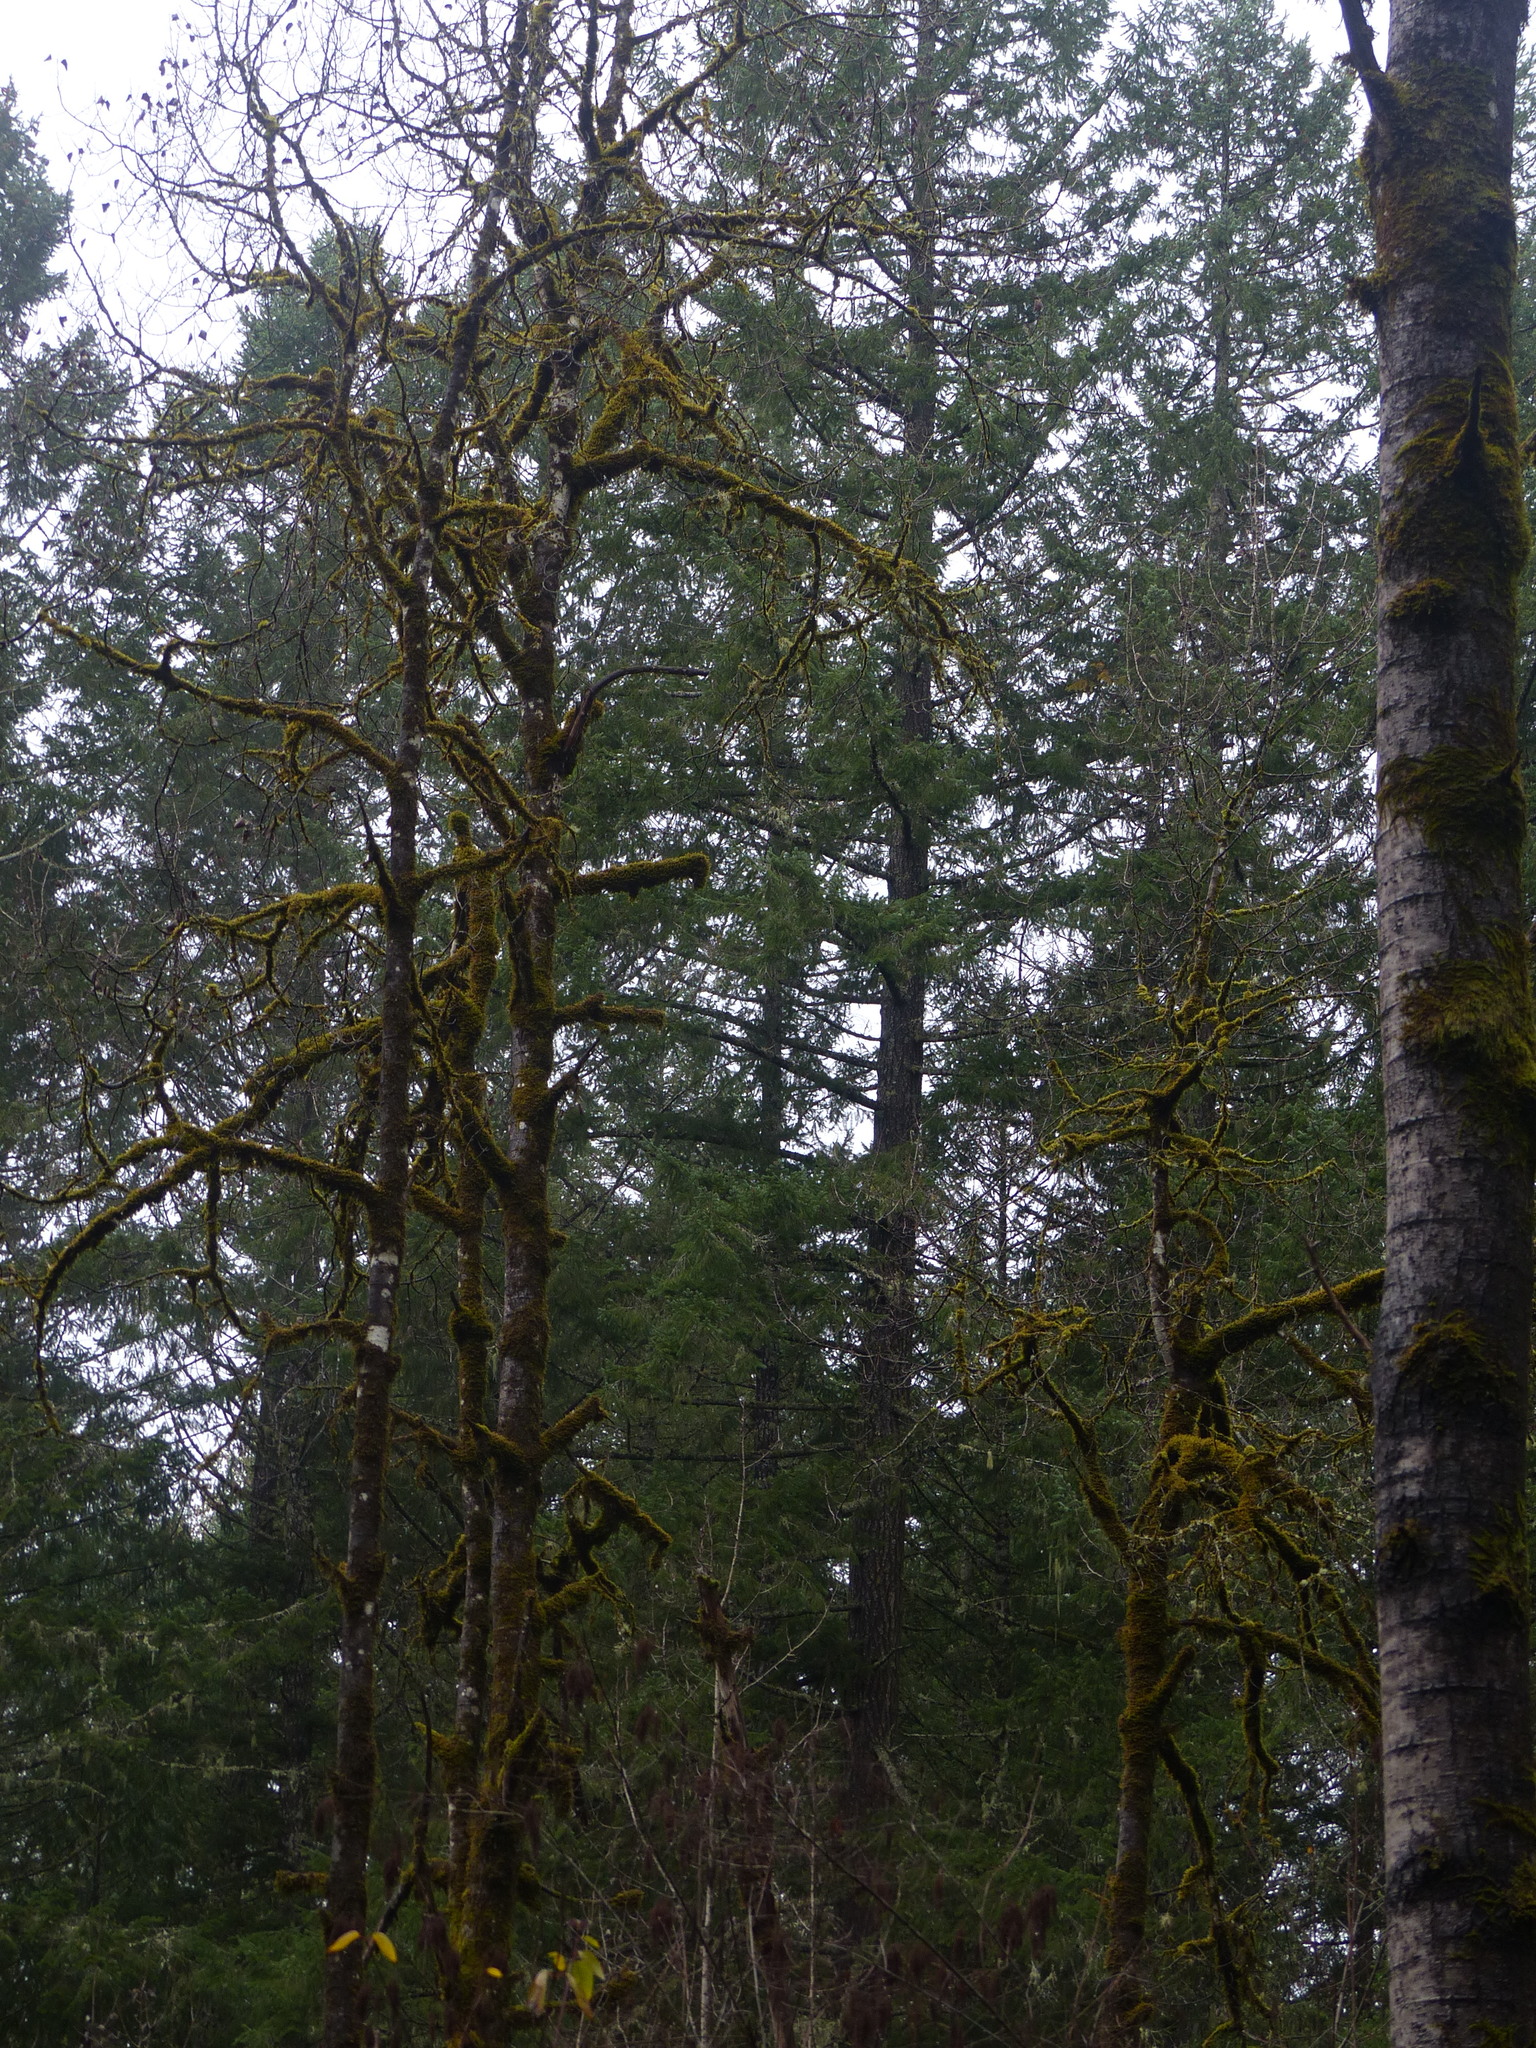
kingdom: Plantae
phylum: Tracheophyta
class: Magnoliopsida
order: Malpighiales
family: Salicaceae
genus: Populus
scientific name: Populus tremuloides
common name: Quaking aspen
